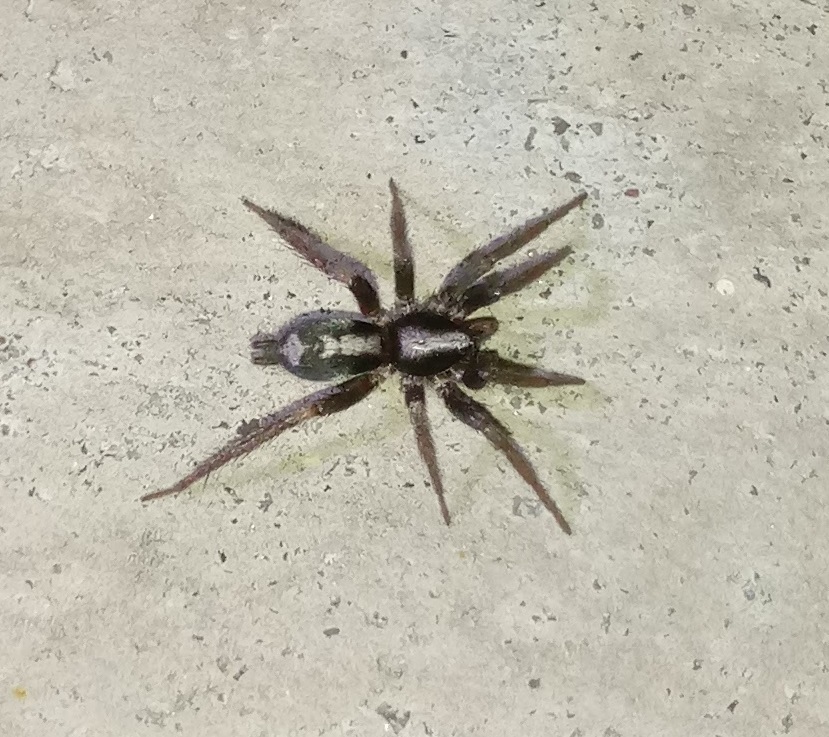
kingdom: Animalia
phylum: Arthropoda
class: Arachnida
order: Araneae
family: Gnaphosidae
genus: Herpyllus
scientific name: Herpyllus ecclesiasticus
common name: Eastern parson spider
